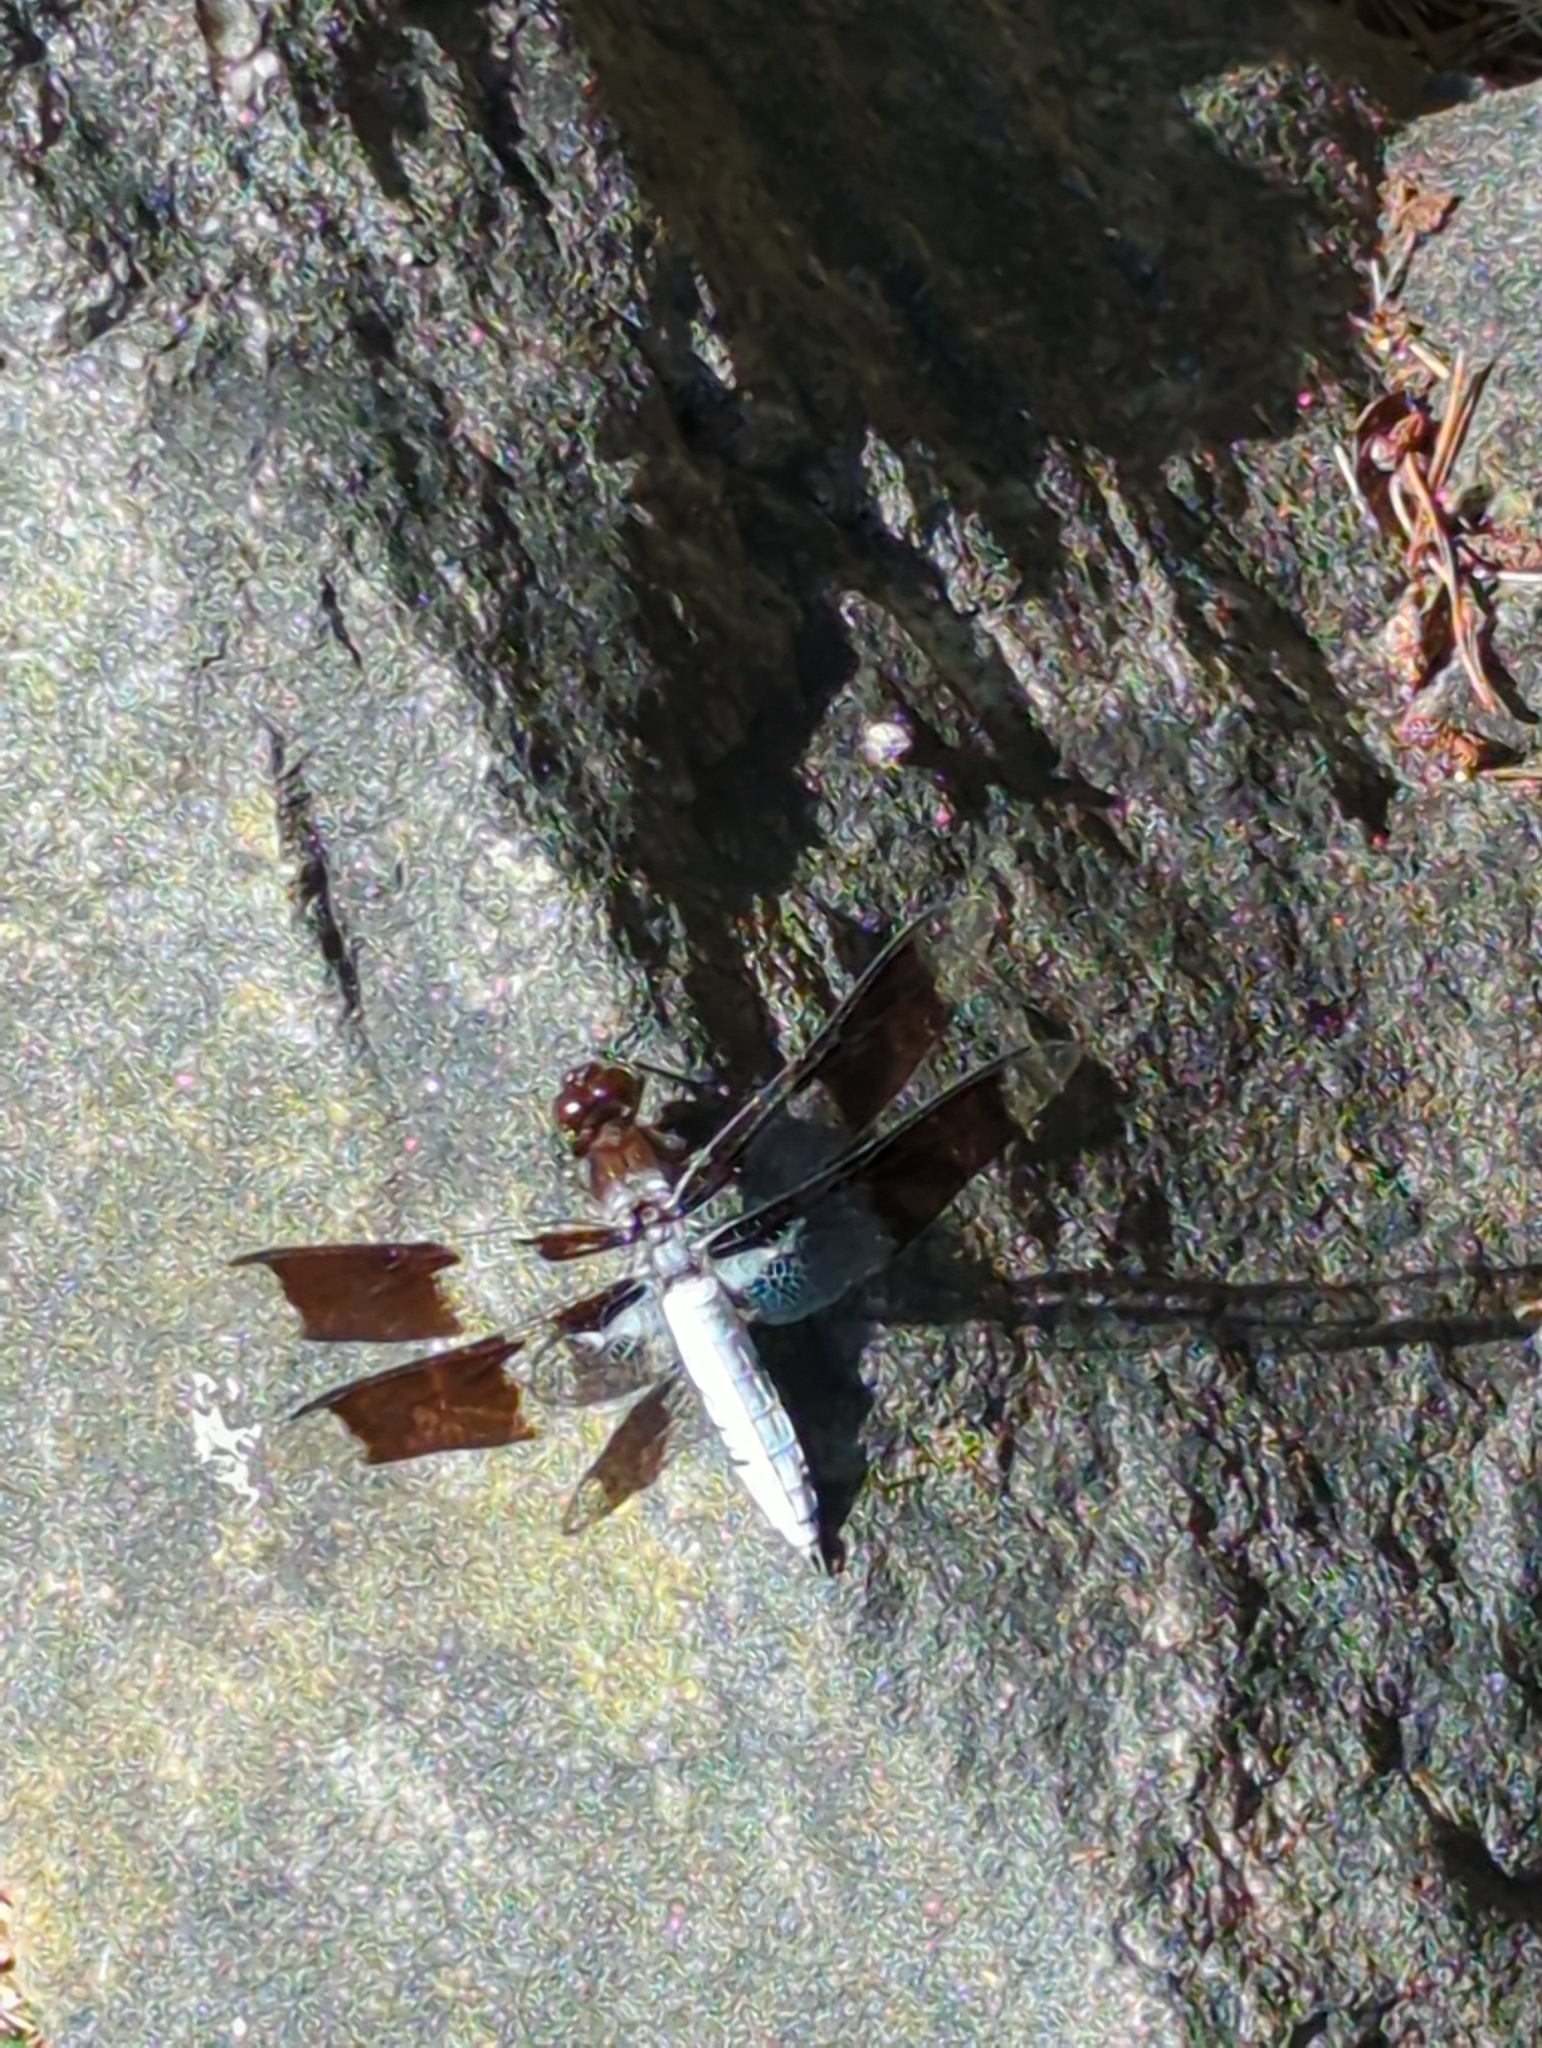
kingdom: Animalia
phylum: Arthropoda
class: Insecta
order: Odonata
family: Libellulidae
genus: Plathemis
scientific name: Plathemis lydia
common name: Common whitetail
